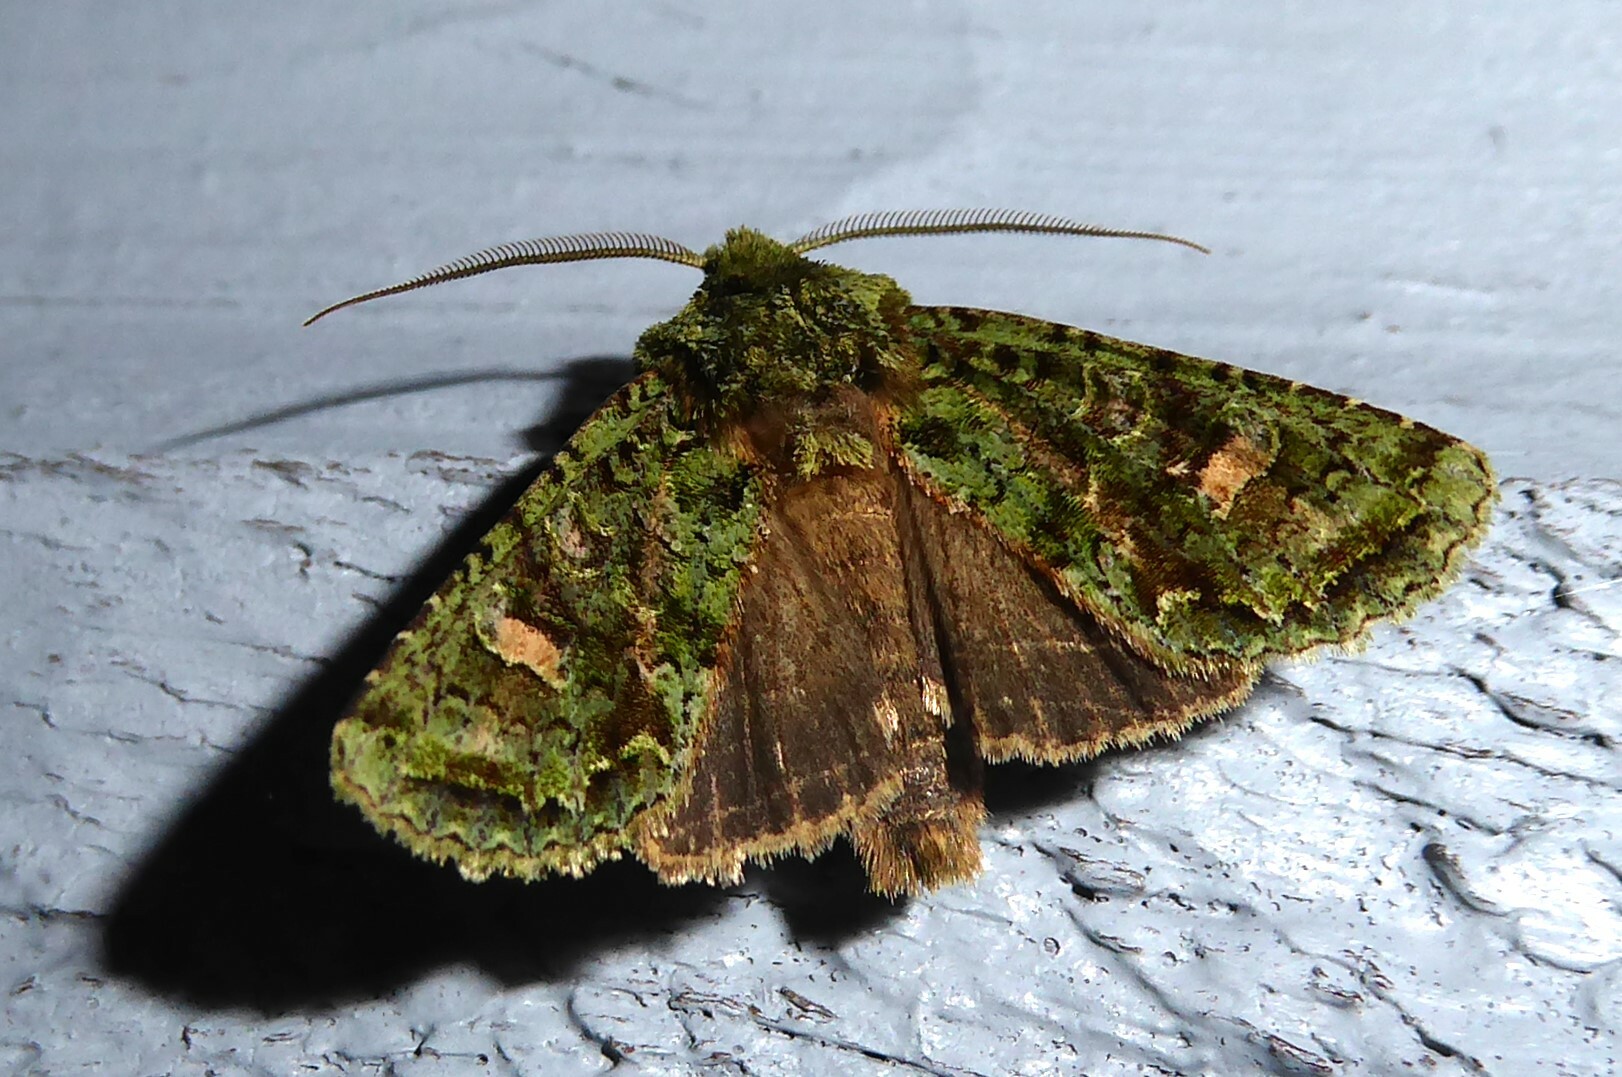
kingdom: Animalia
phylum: Arthropoda
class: Insecta
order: Lepidoptera
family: Noctuidae
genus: Ichneutica
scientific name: Ichneutica
